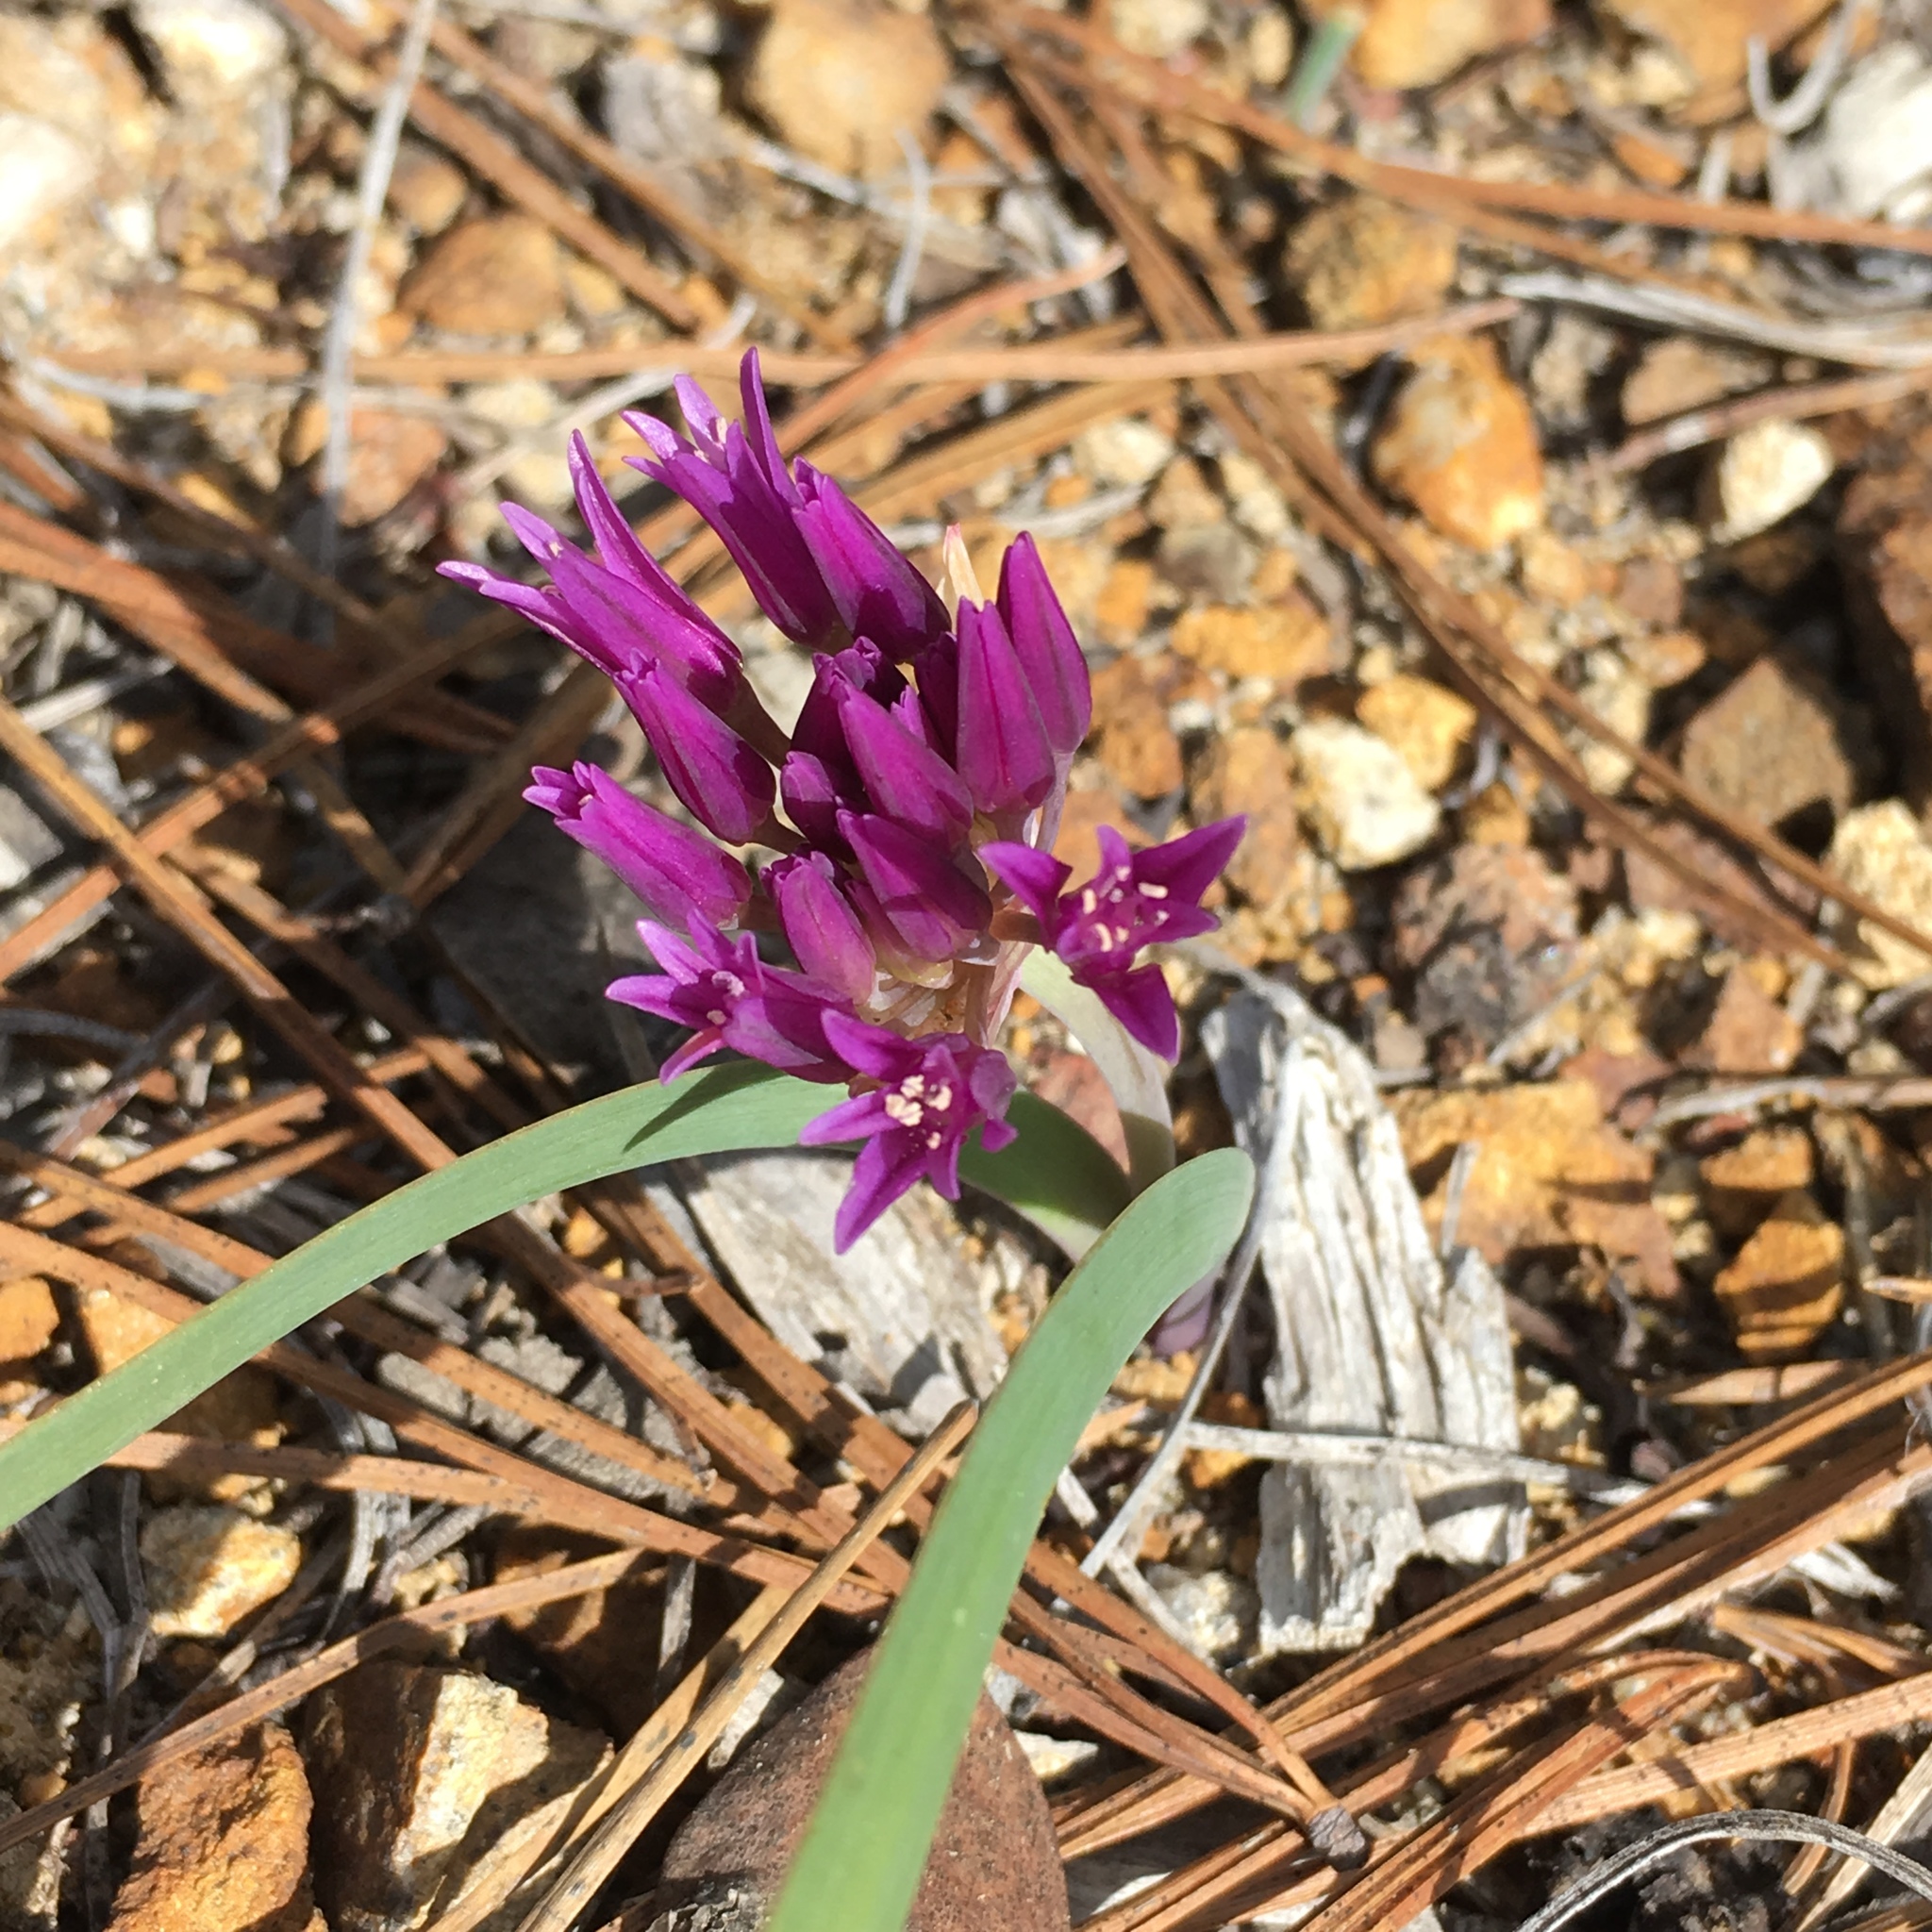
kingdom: Plantae
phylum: Tracheophyta
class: Liliopsida
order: Asparagales
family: Amaryllidaceae
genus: Allium
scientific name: Allium falcifolium
